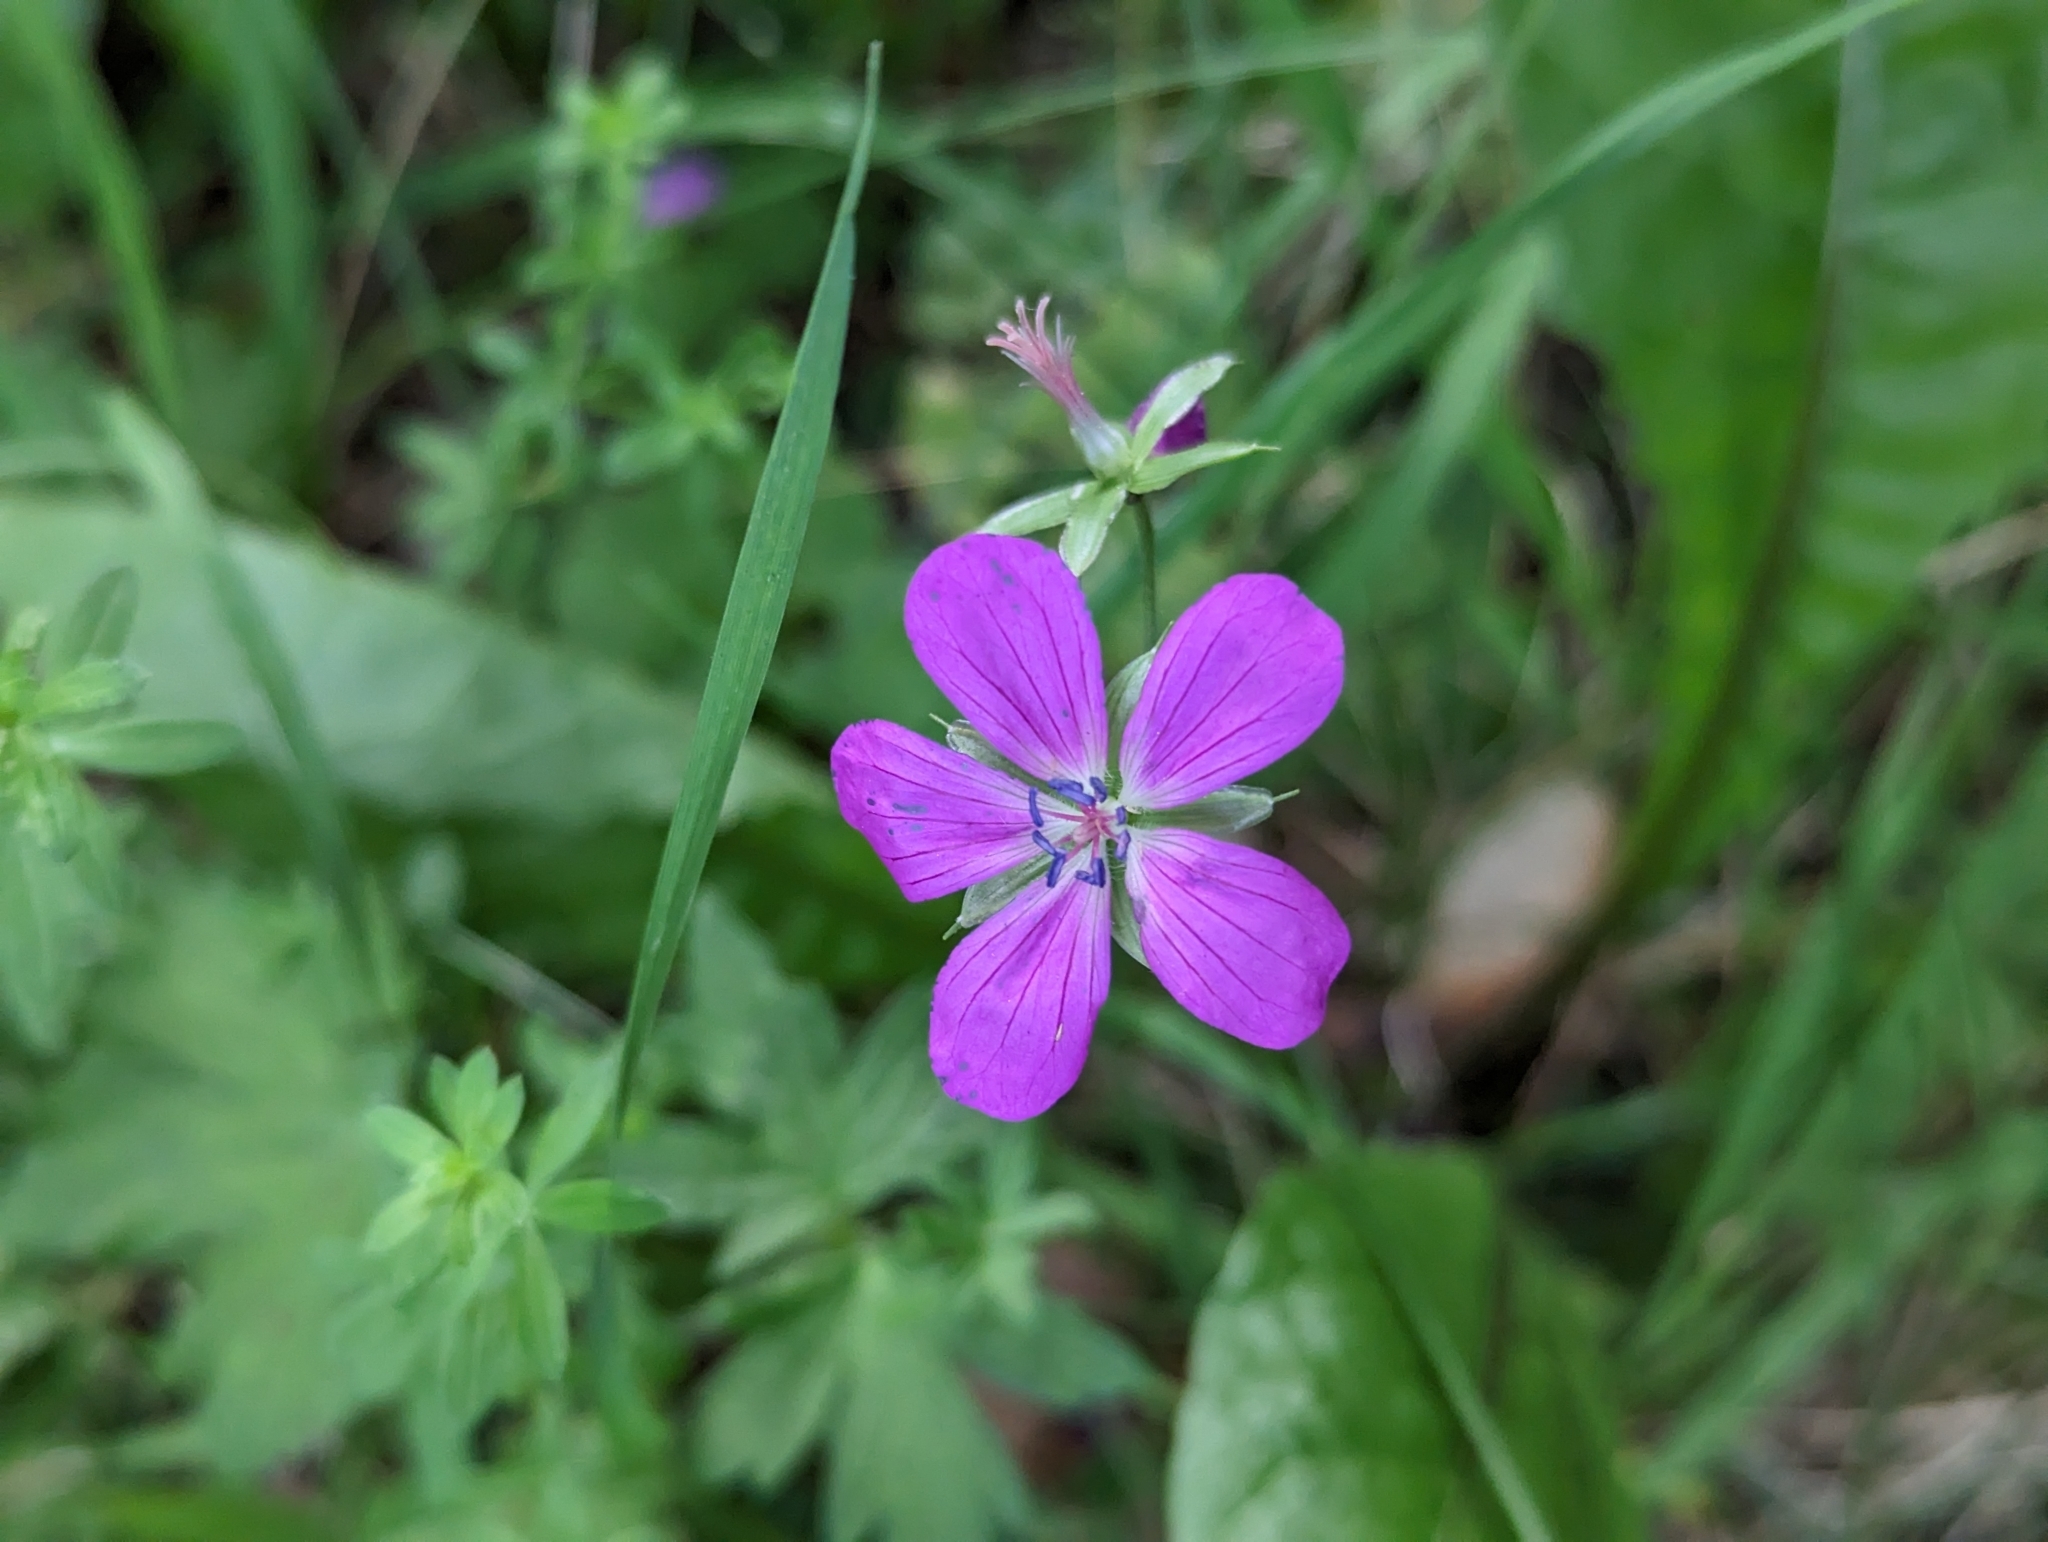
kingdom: Plantae
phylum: Tracheophyta
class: Magnoliopsida
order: Geraniales
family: Geraniaceae
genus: Geranium
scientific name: Geranium palustre
